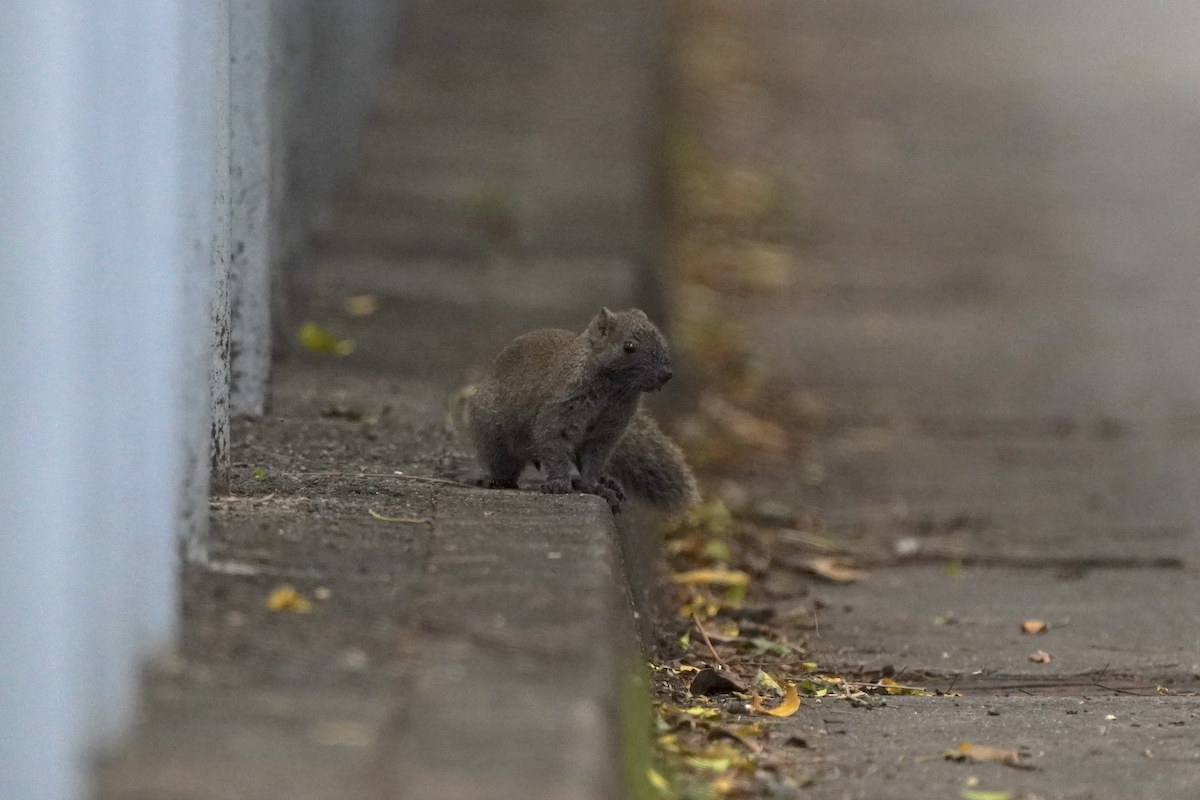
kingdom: Animalia
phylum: Chordata
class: Mammalia
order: Rodentia
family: Sciuridae
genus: Callosciurus
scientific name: Callosciurus erythraeus
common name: Pallas's squirrel
